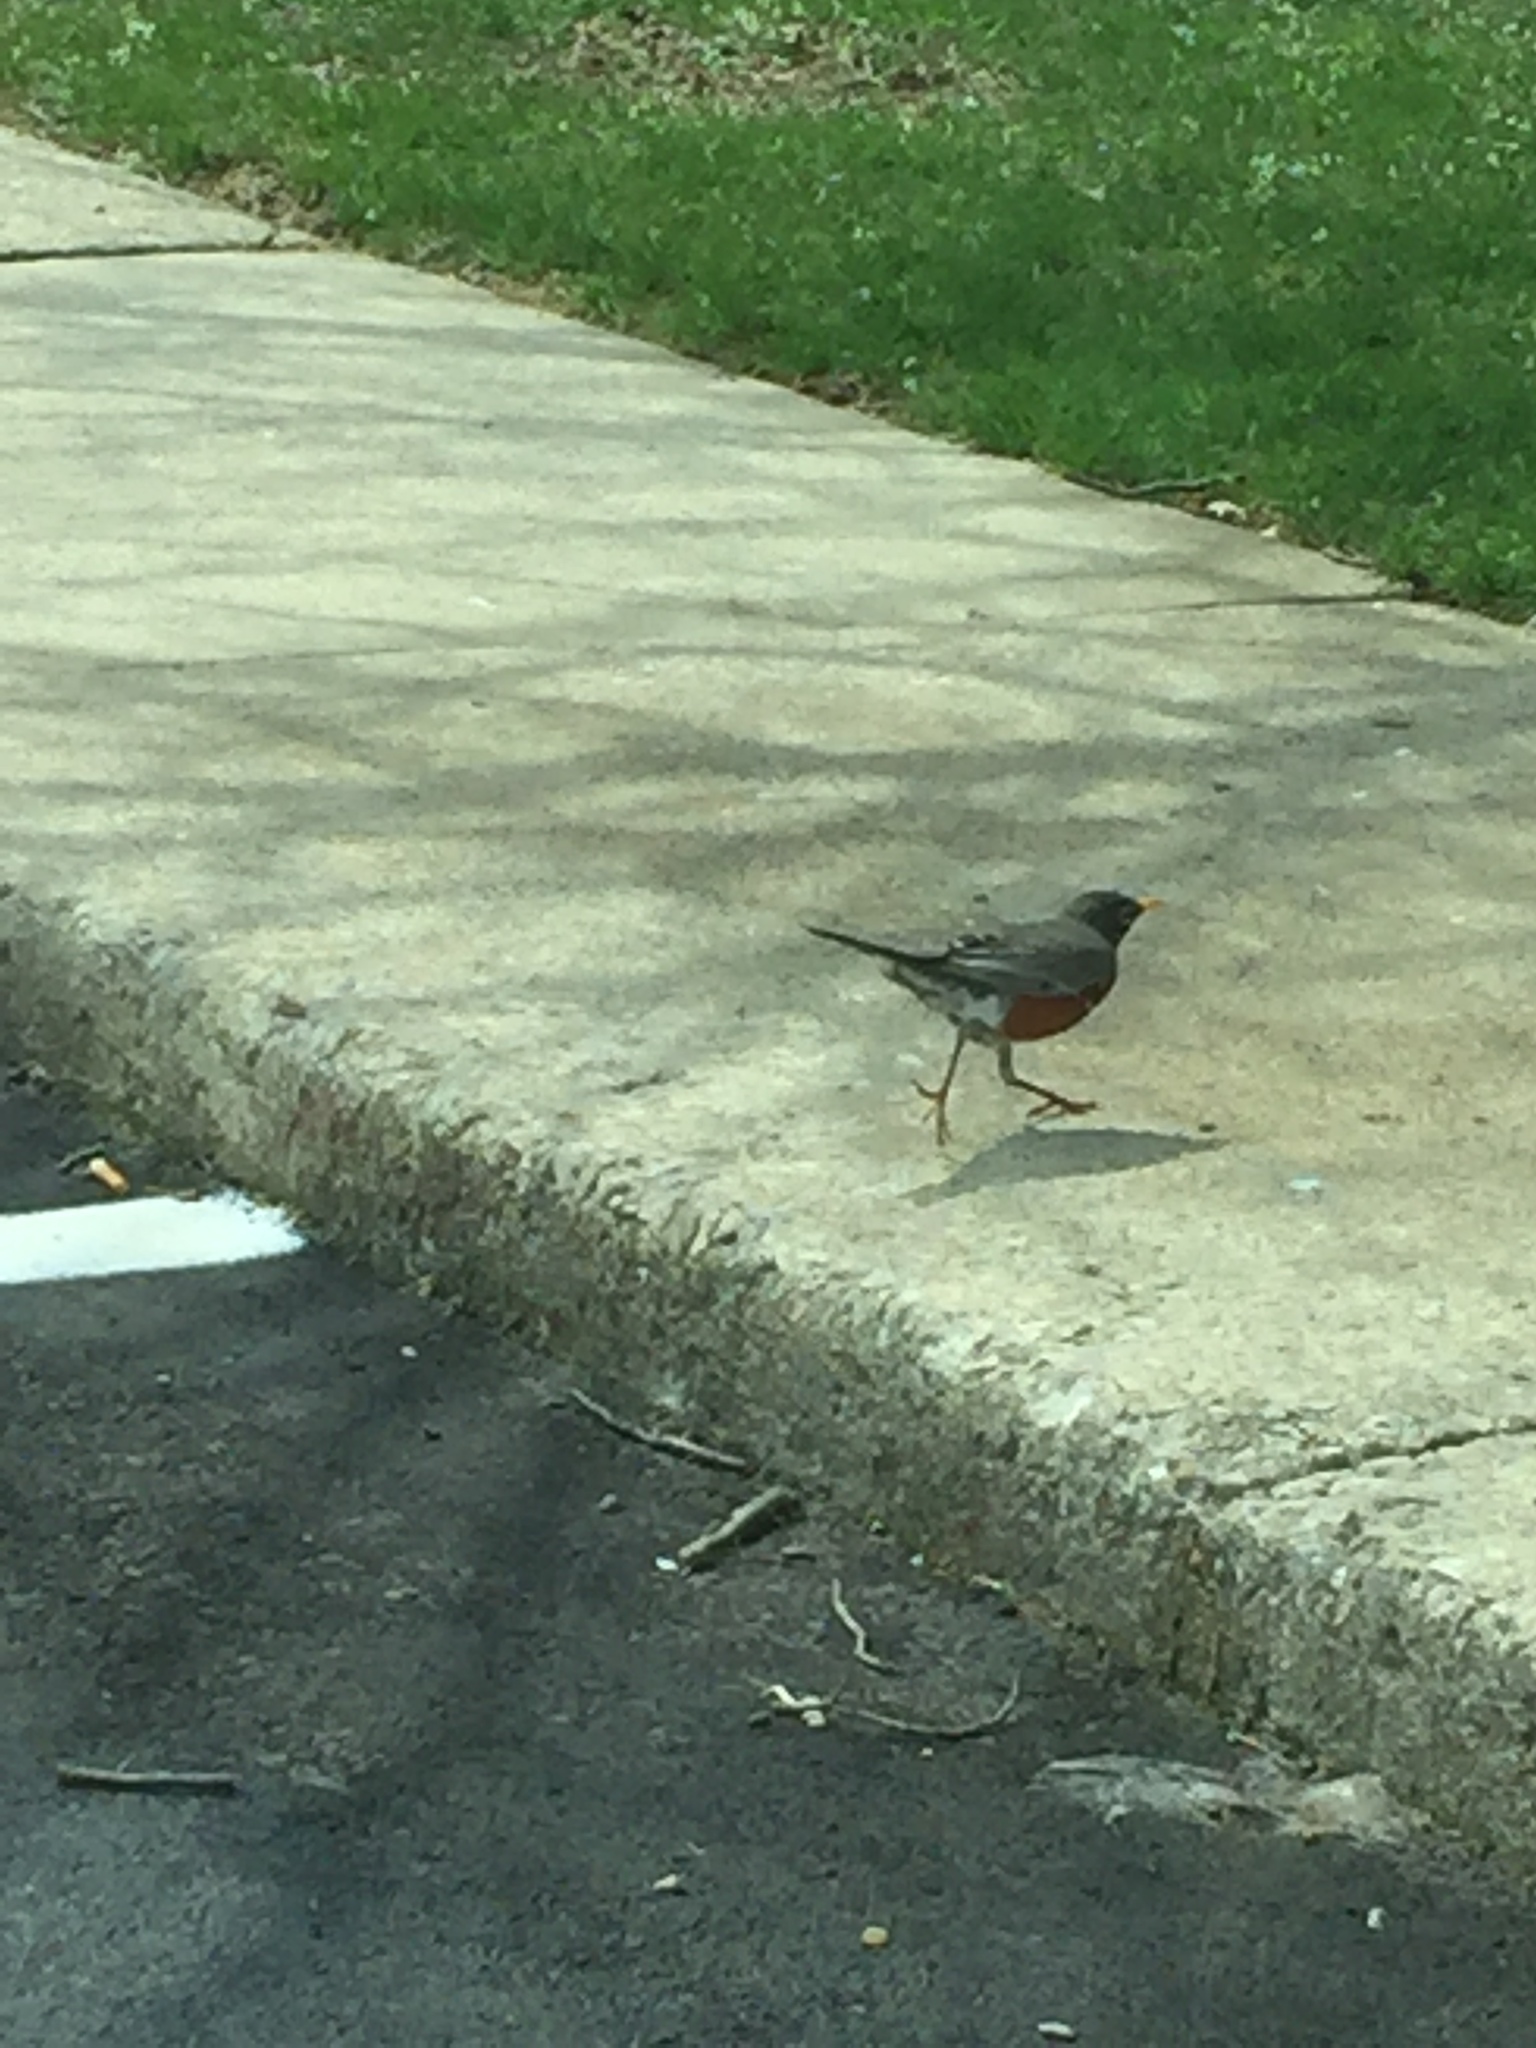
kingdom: Animalia
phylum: Chordata
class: Aves
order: Passeriformes
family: Turdidae
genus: Turdus
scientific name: Turdus migratorius
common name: American robin
